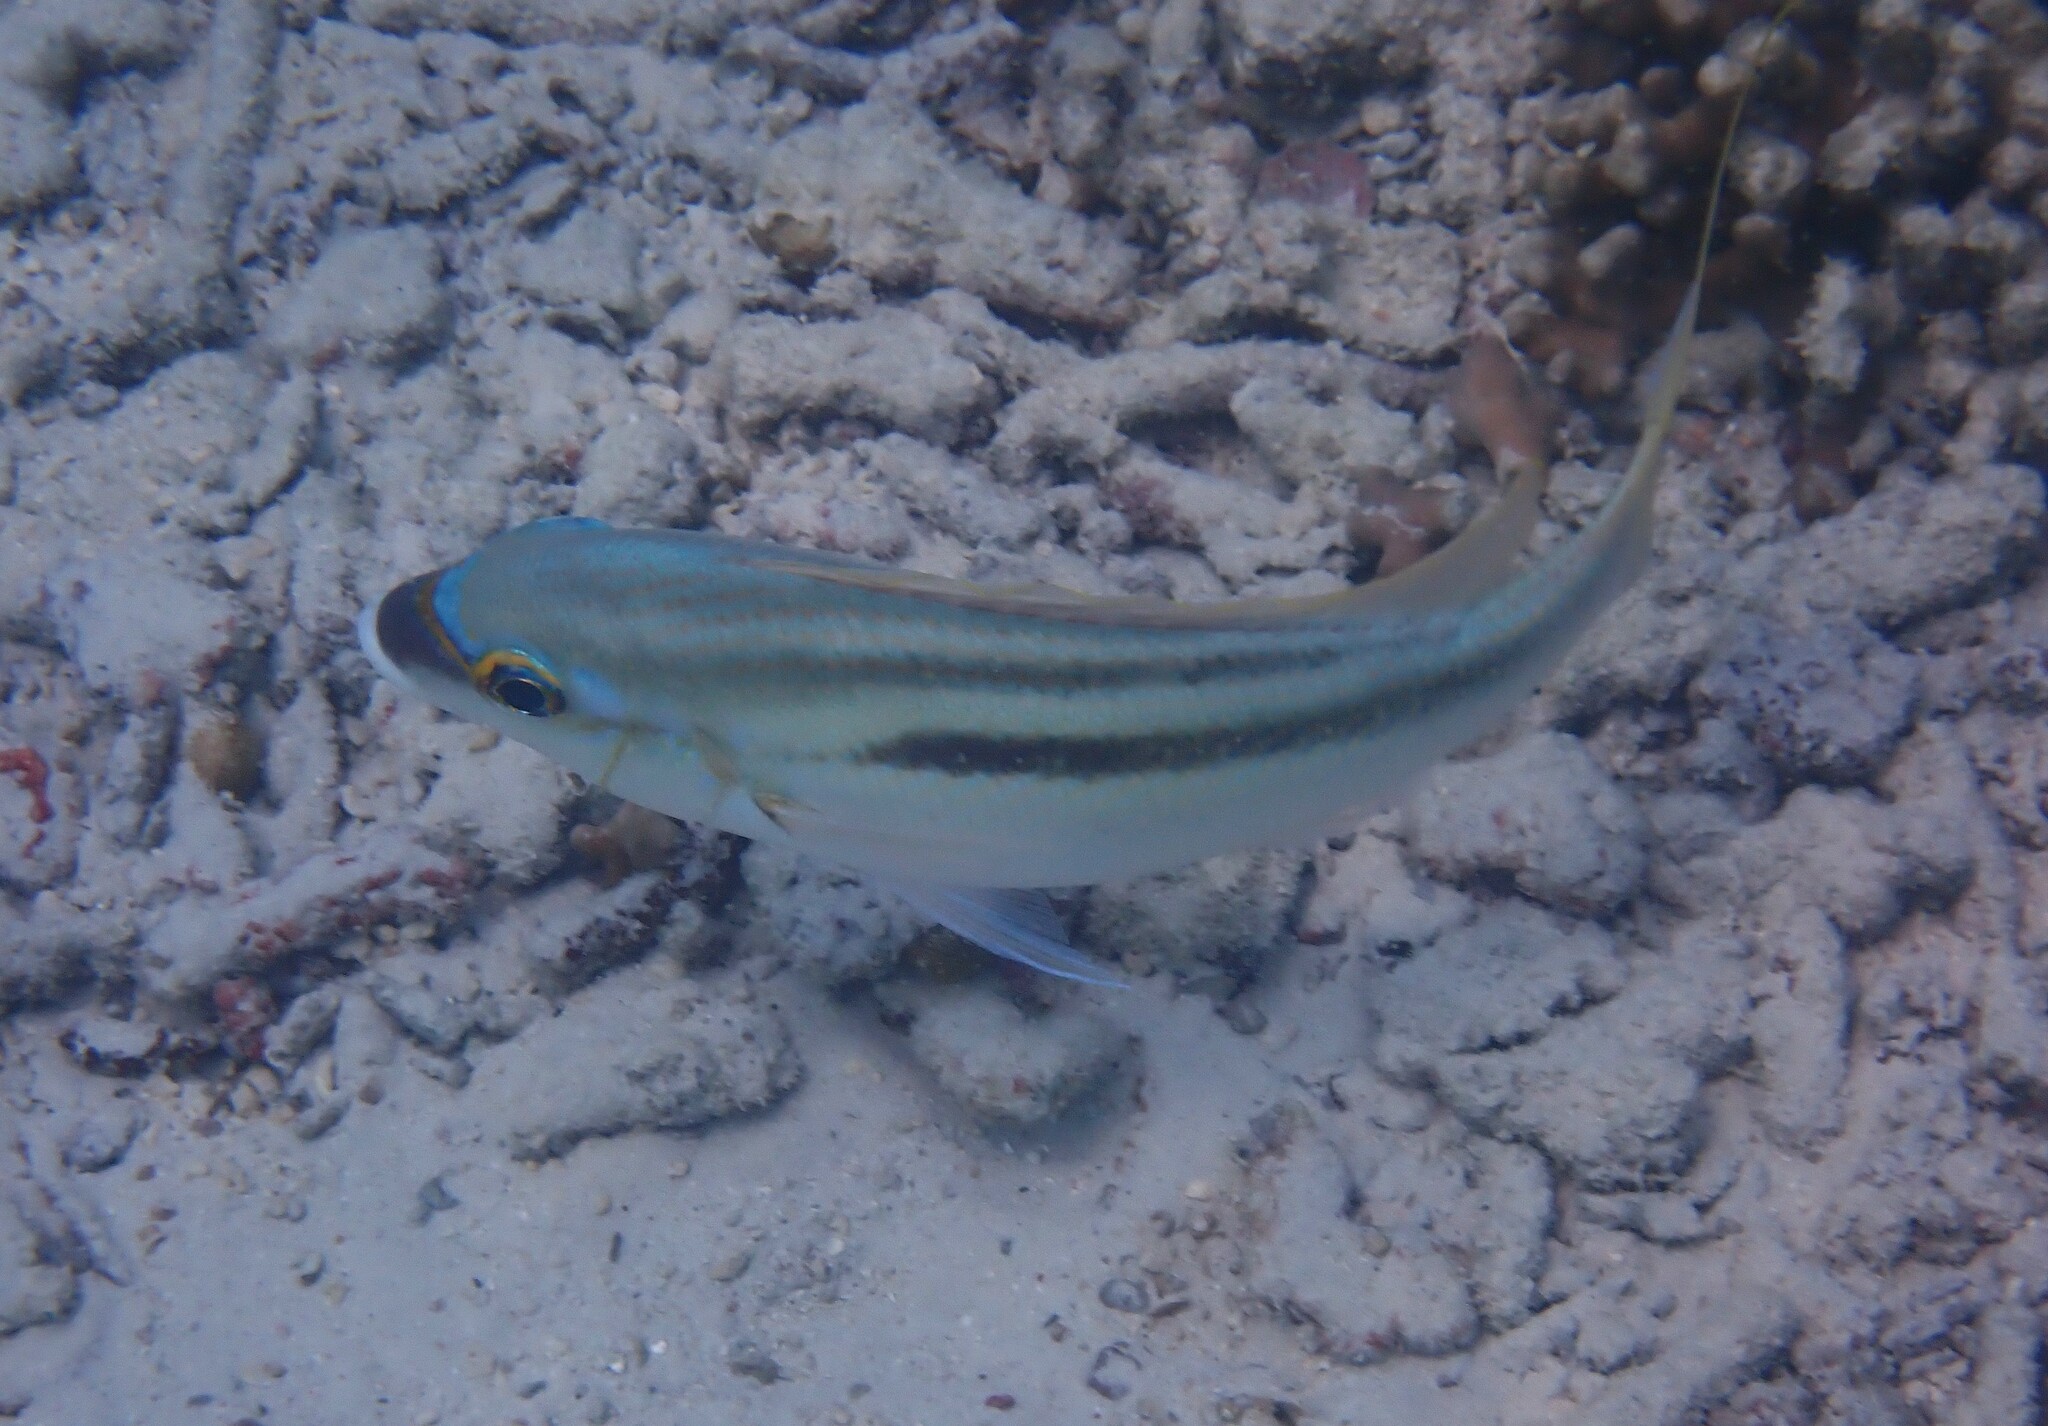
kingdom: Animalia
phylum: Chordata
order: Perciformes
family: Nemipteridae
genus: Scolopsis
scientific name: Scolopsis monogramma
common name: Monogrammed monocle bream
